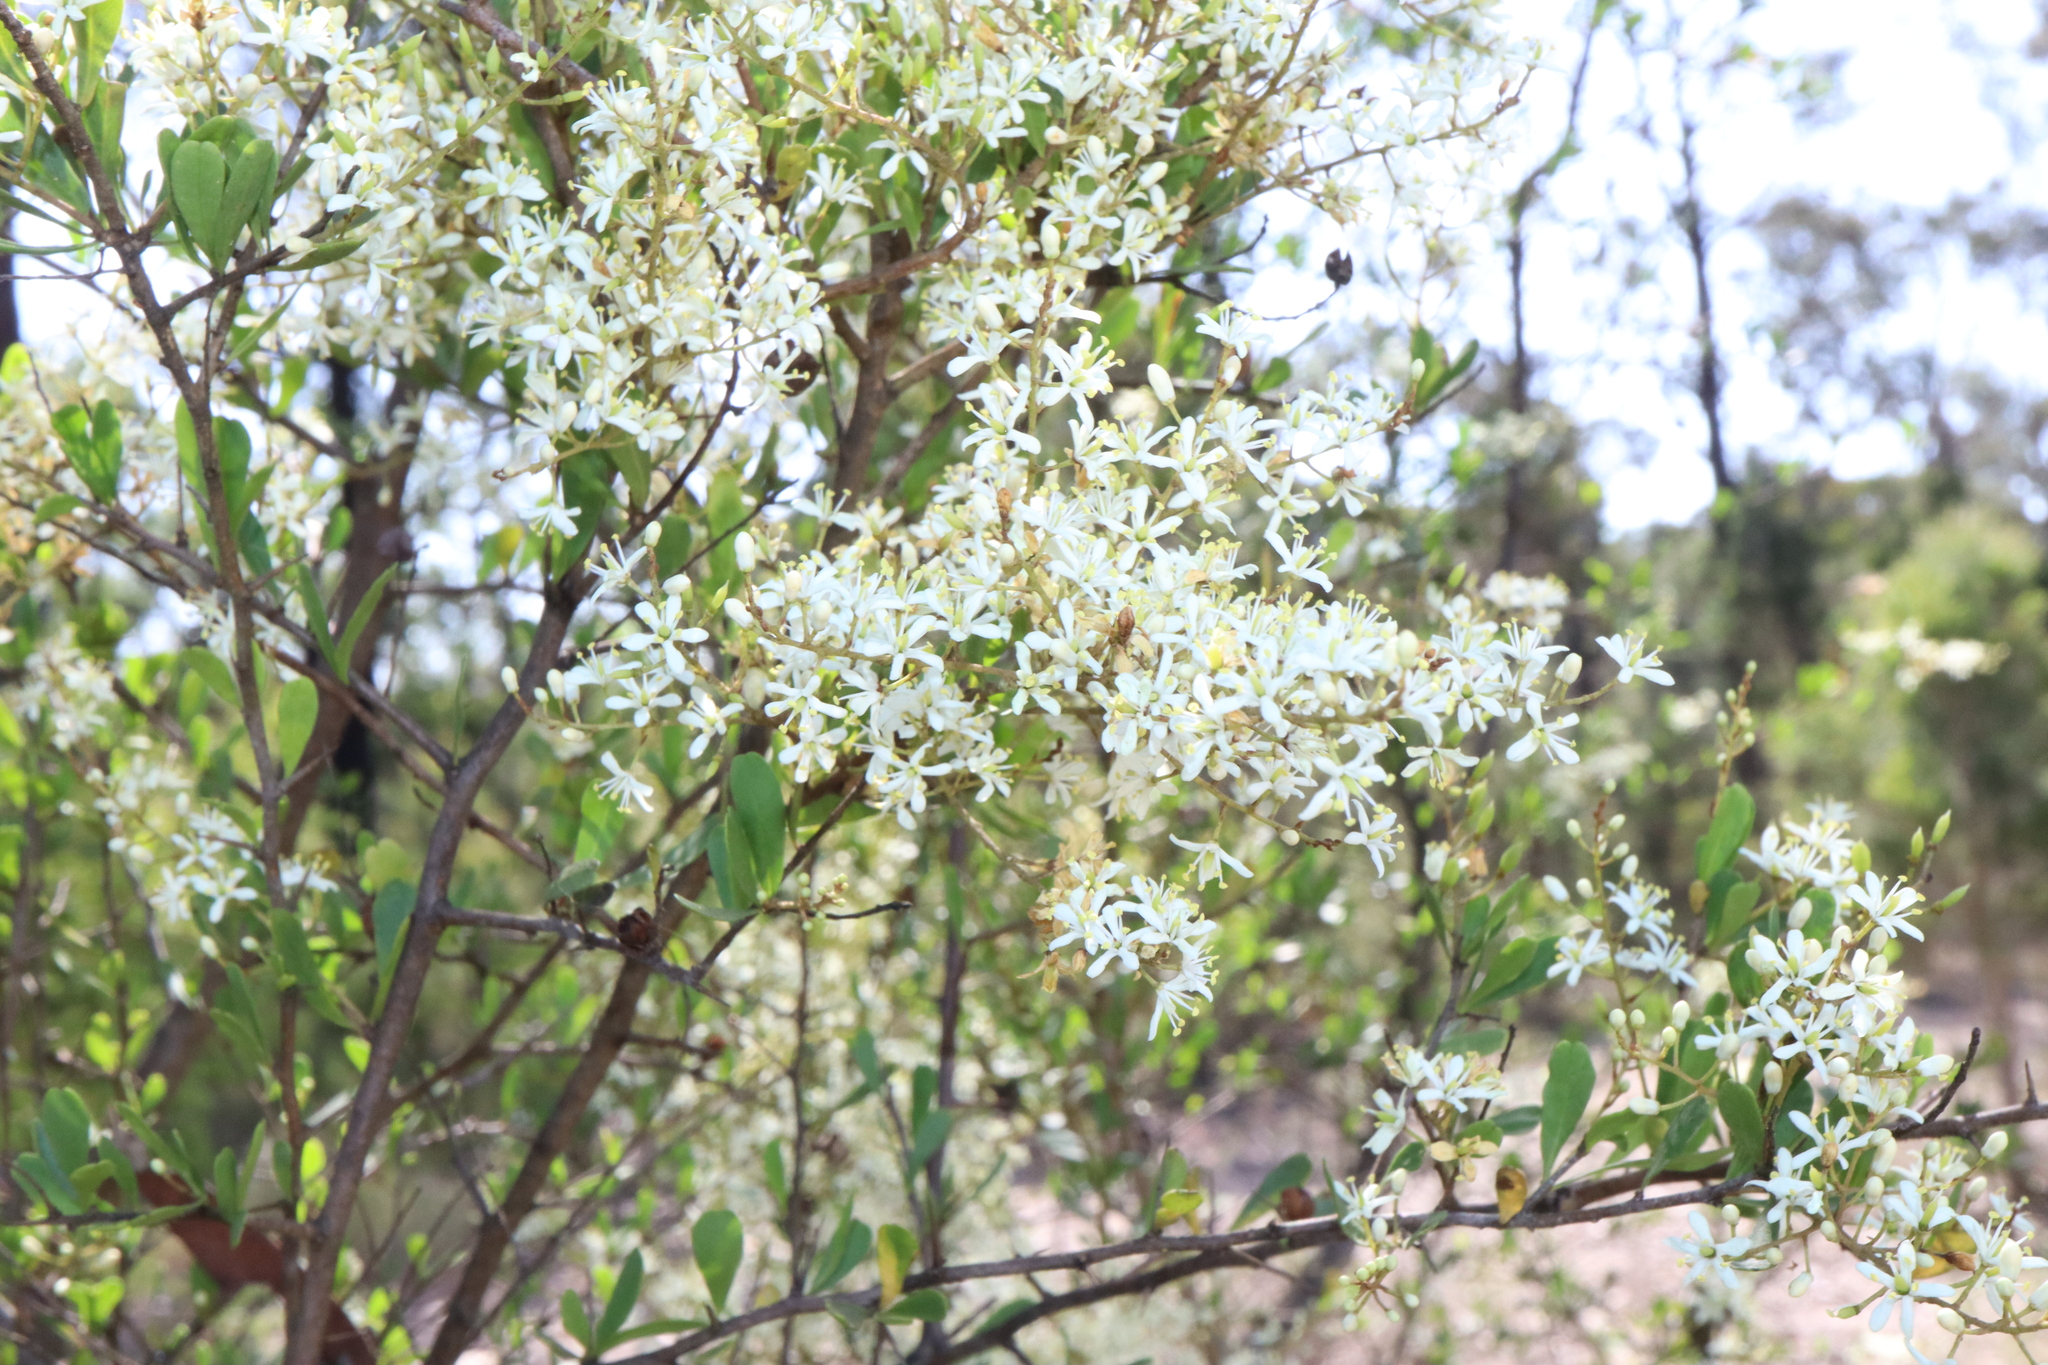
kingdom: Plantae
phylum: Tracheophyta
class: Magnoliopsida
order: Apiales
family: Pittosporaceae
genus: Bursaria
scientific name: Bursaria spinosa
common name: Australian blackthorn
